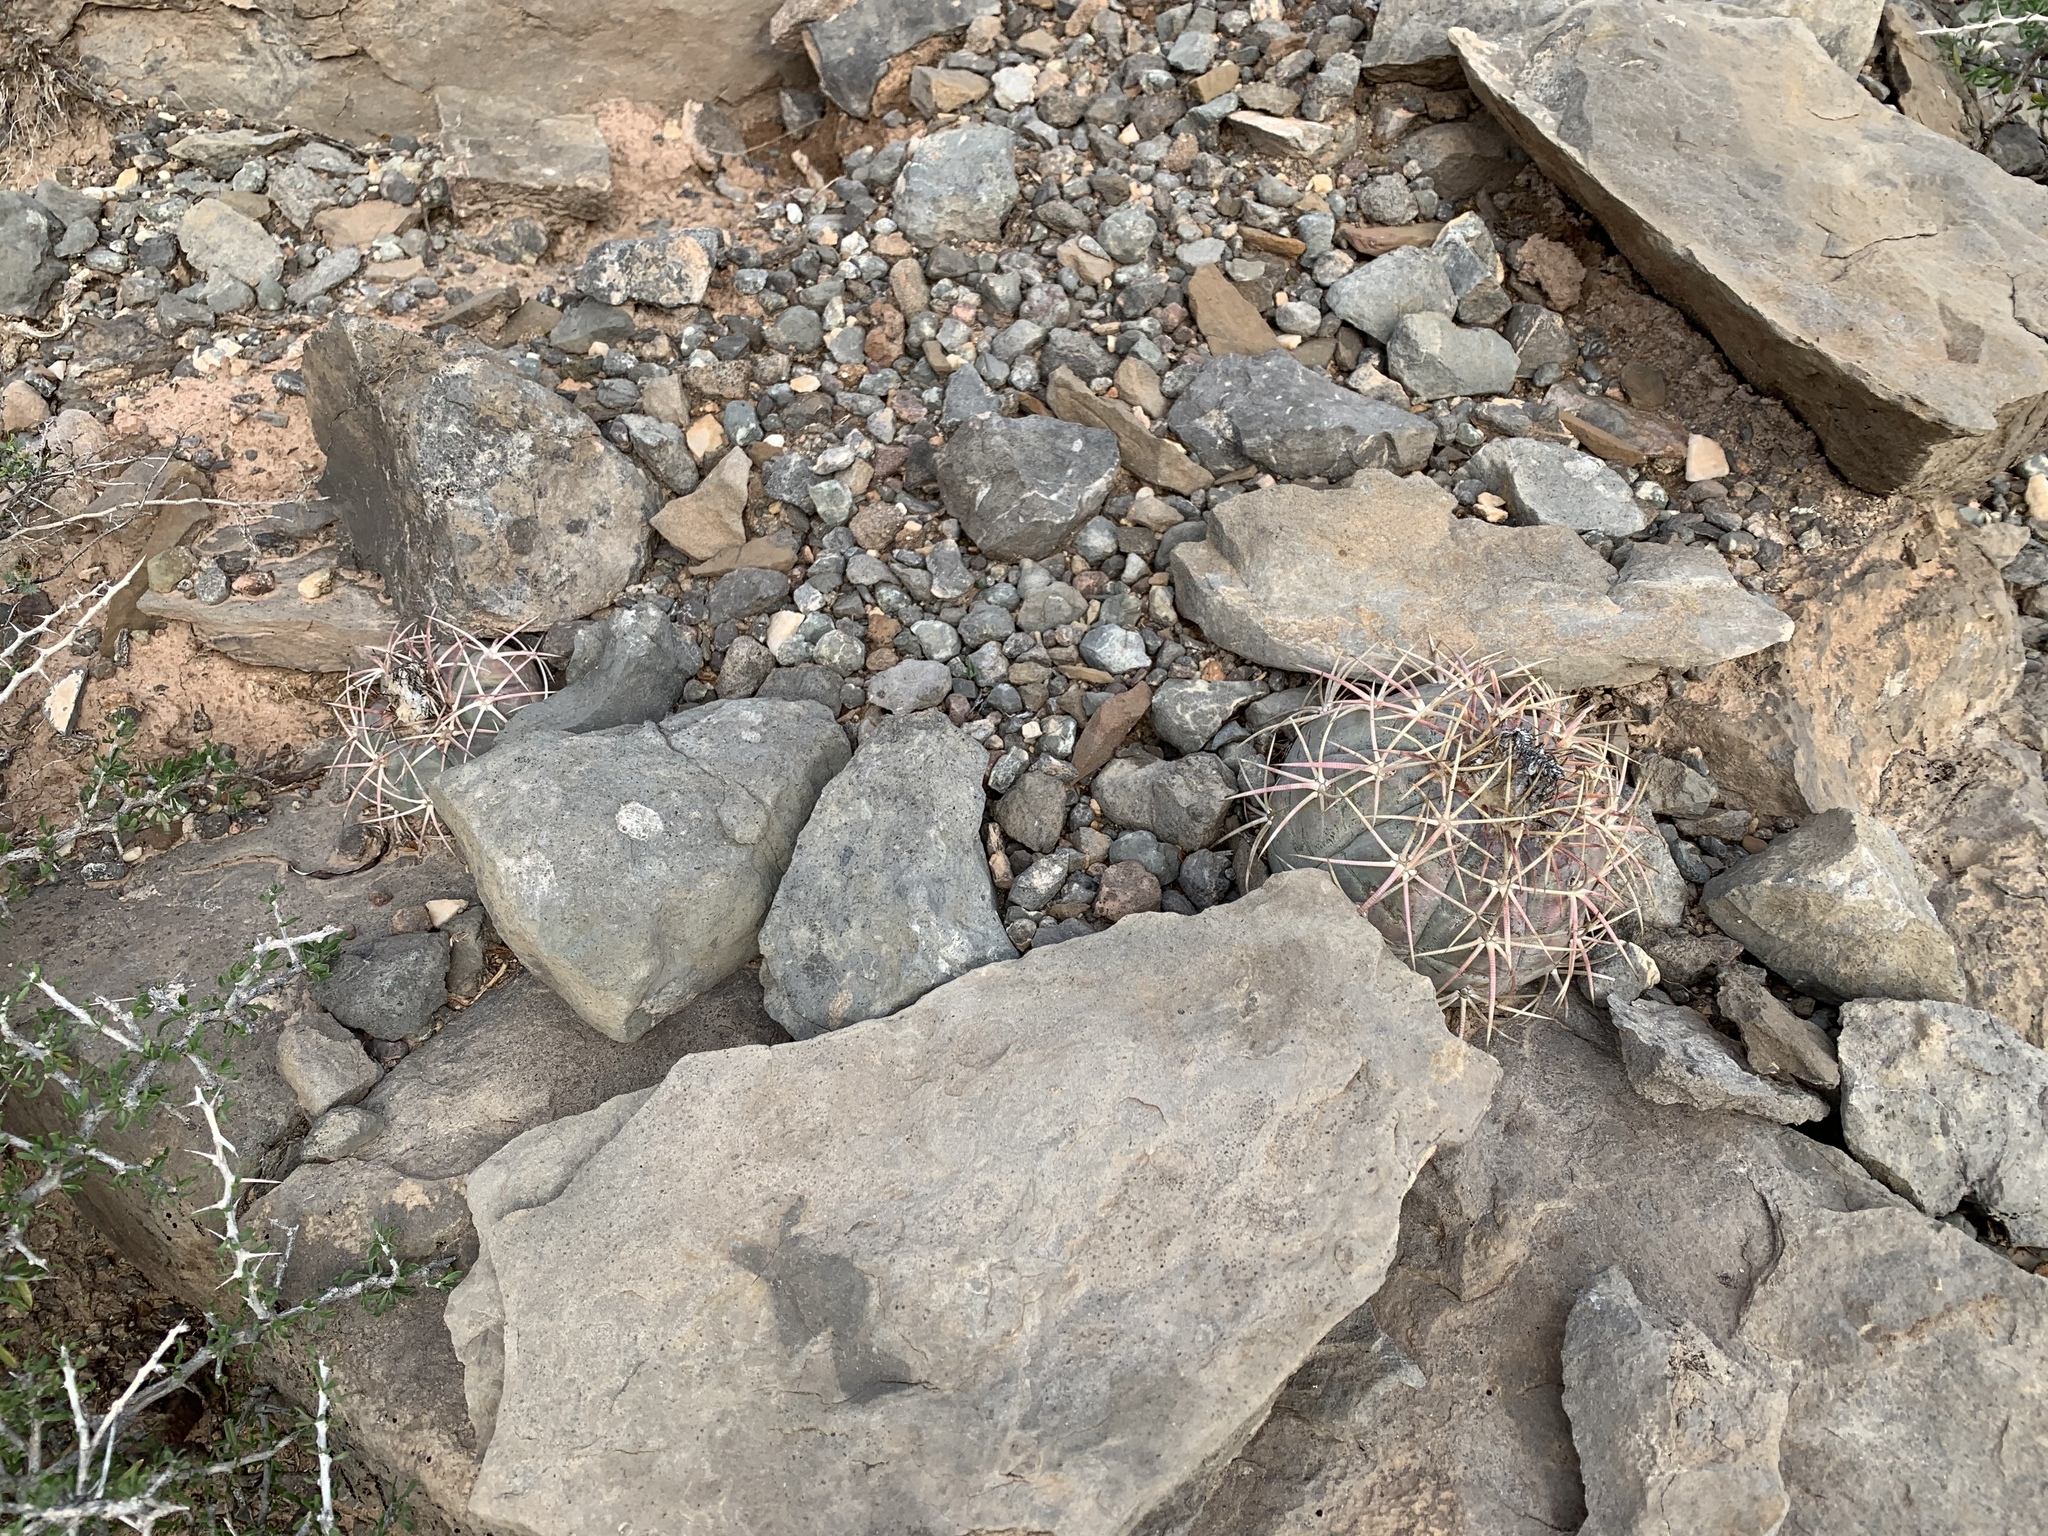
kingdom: Plantae
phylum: Tracheophyta
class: Magnoliopsida
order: Caryophyllales
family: Cactaceae
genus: Echinocactus
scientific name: Echinocactus horizonthalonius
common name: Devilshead
